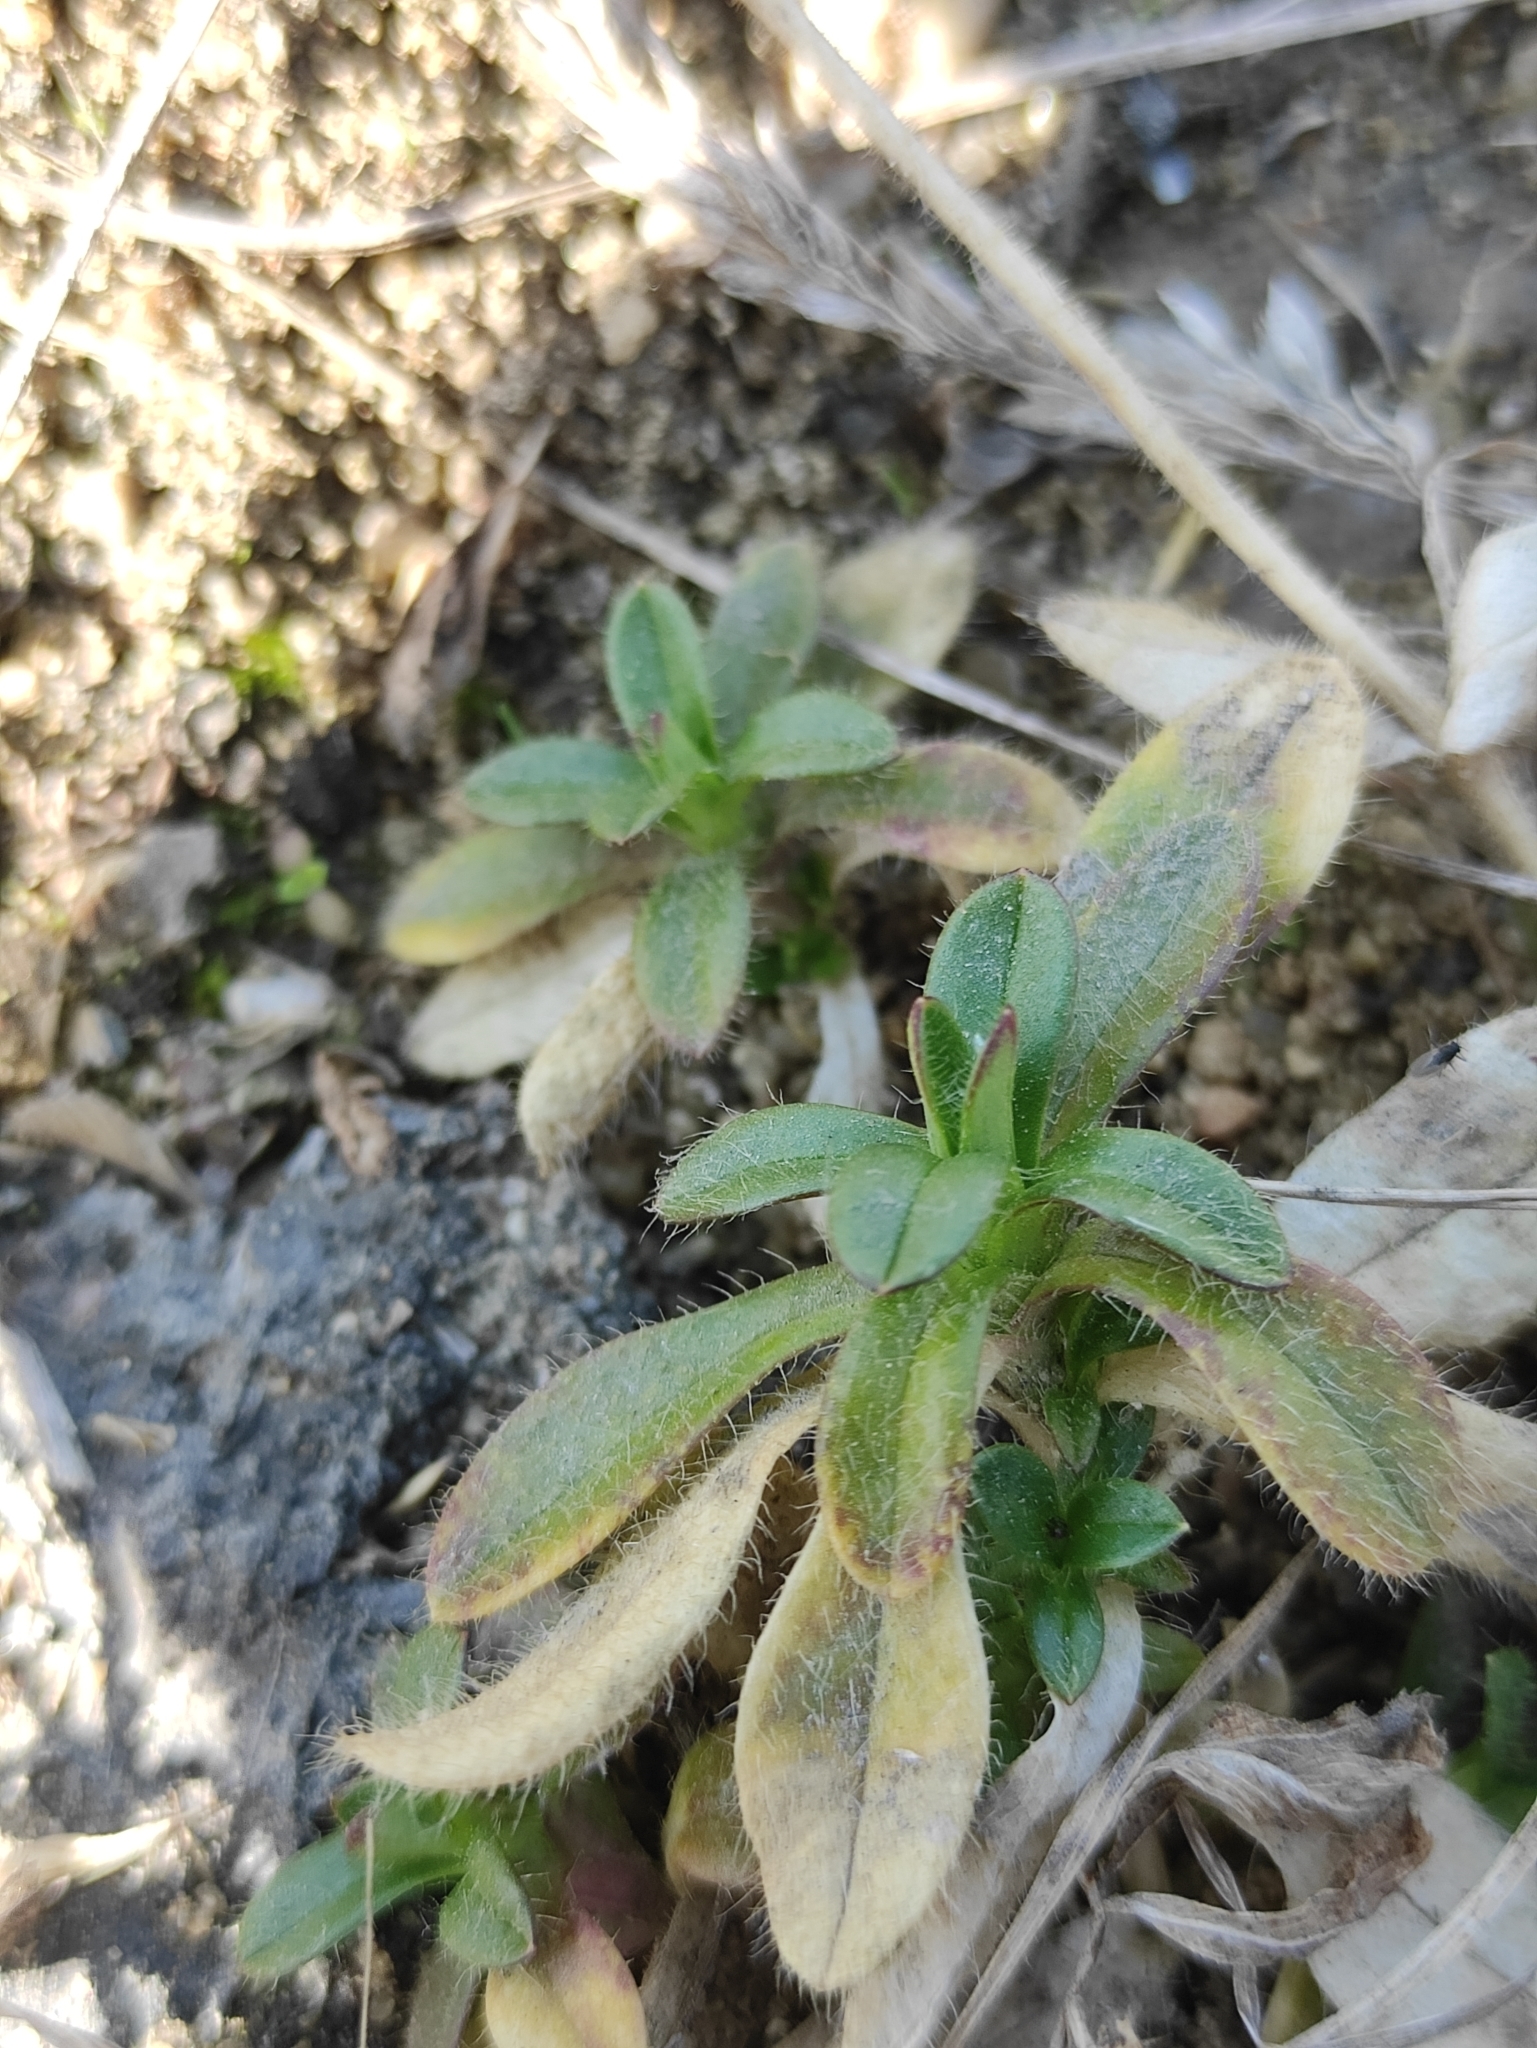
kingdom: Plantae
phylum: Tracheophyta
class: Magnoliopsida
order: Caryophyllales
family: Caryophyllaceae
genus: Cerastium
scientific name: Cerastium holosteoides
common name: Big chickweed
